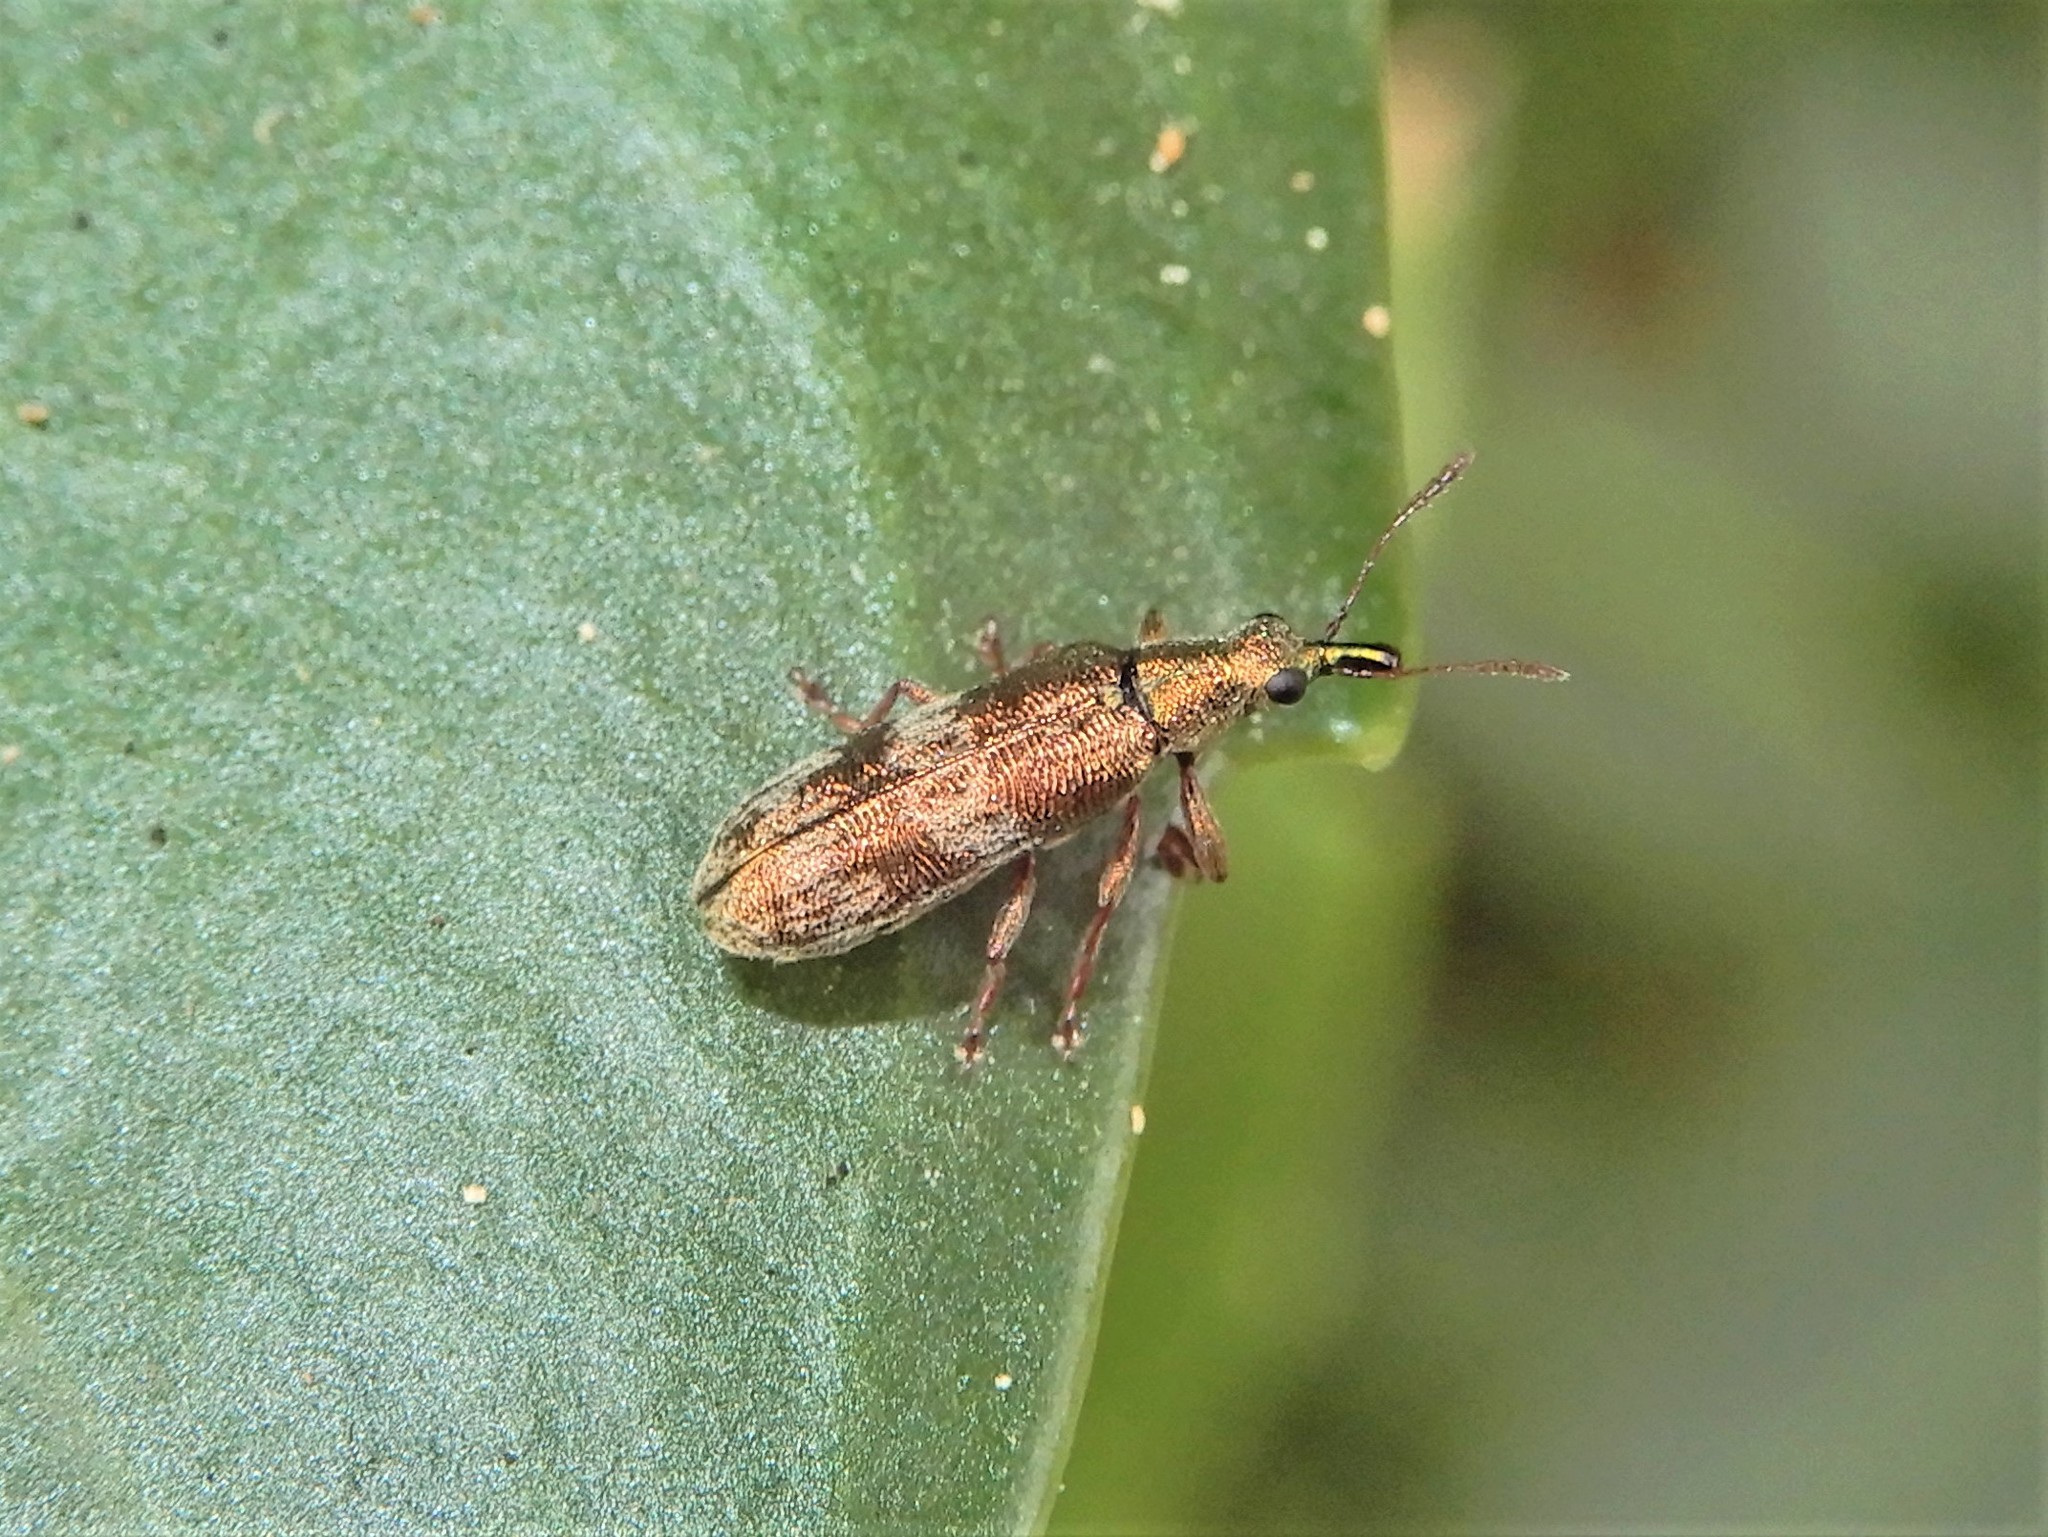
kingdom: Animalia
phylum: Arthropoda
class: Insecta
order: Coleoptera
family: Belidae
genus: Rhicnobelus
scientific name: Rhicnobelus
